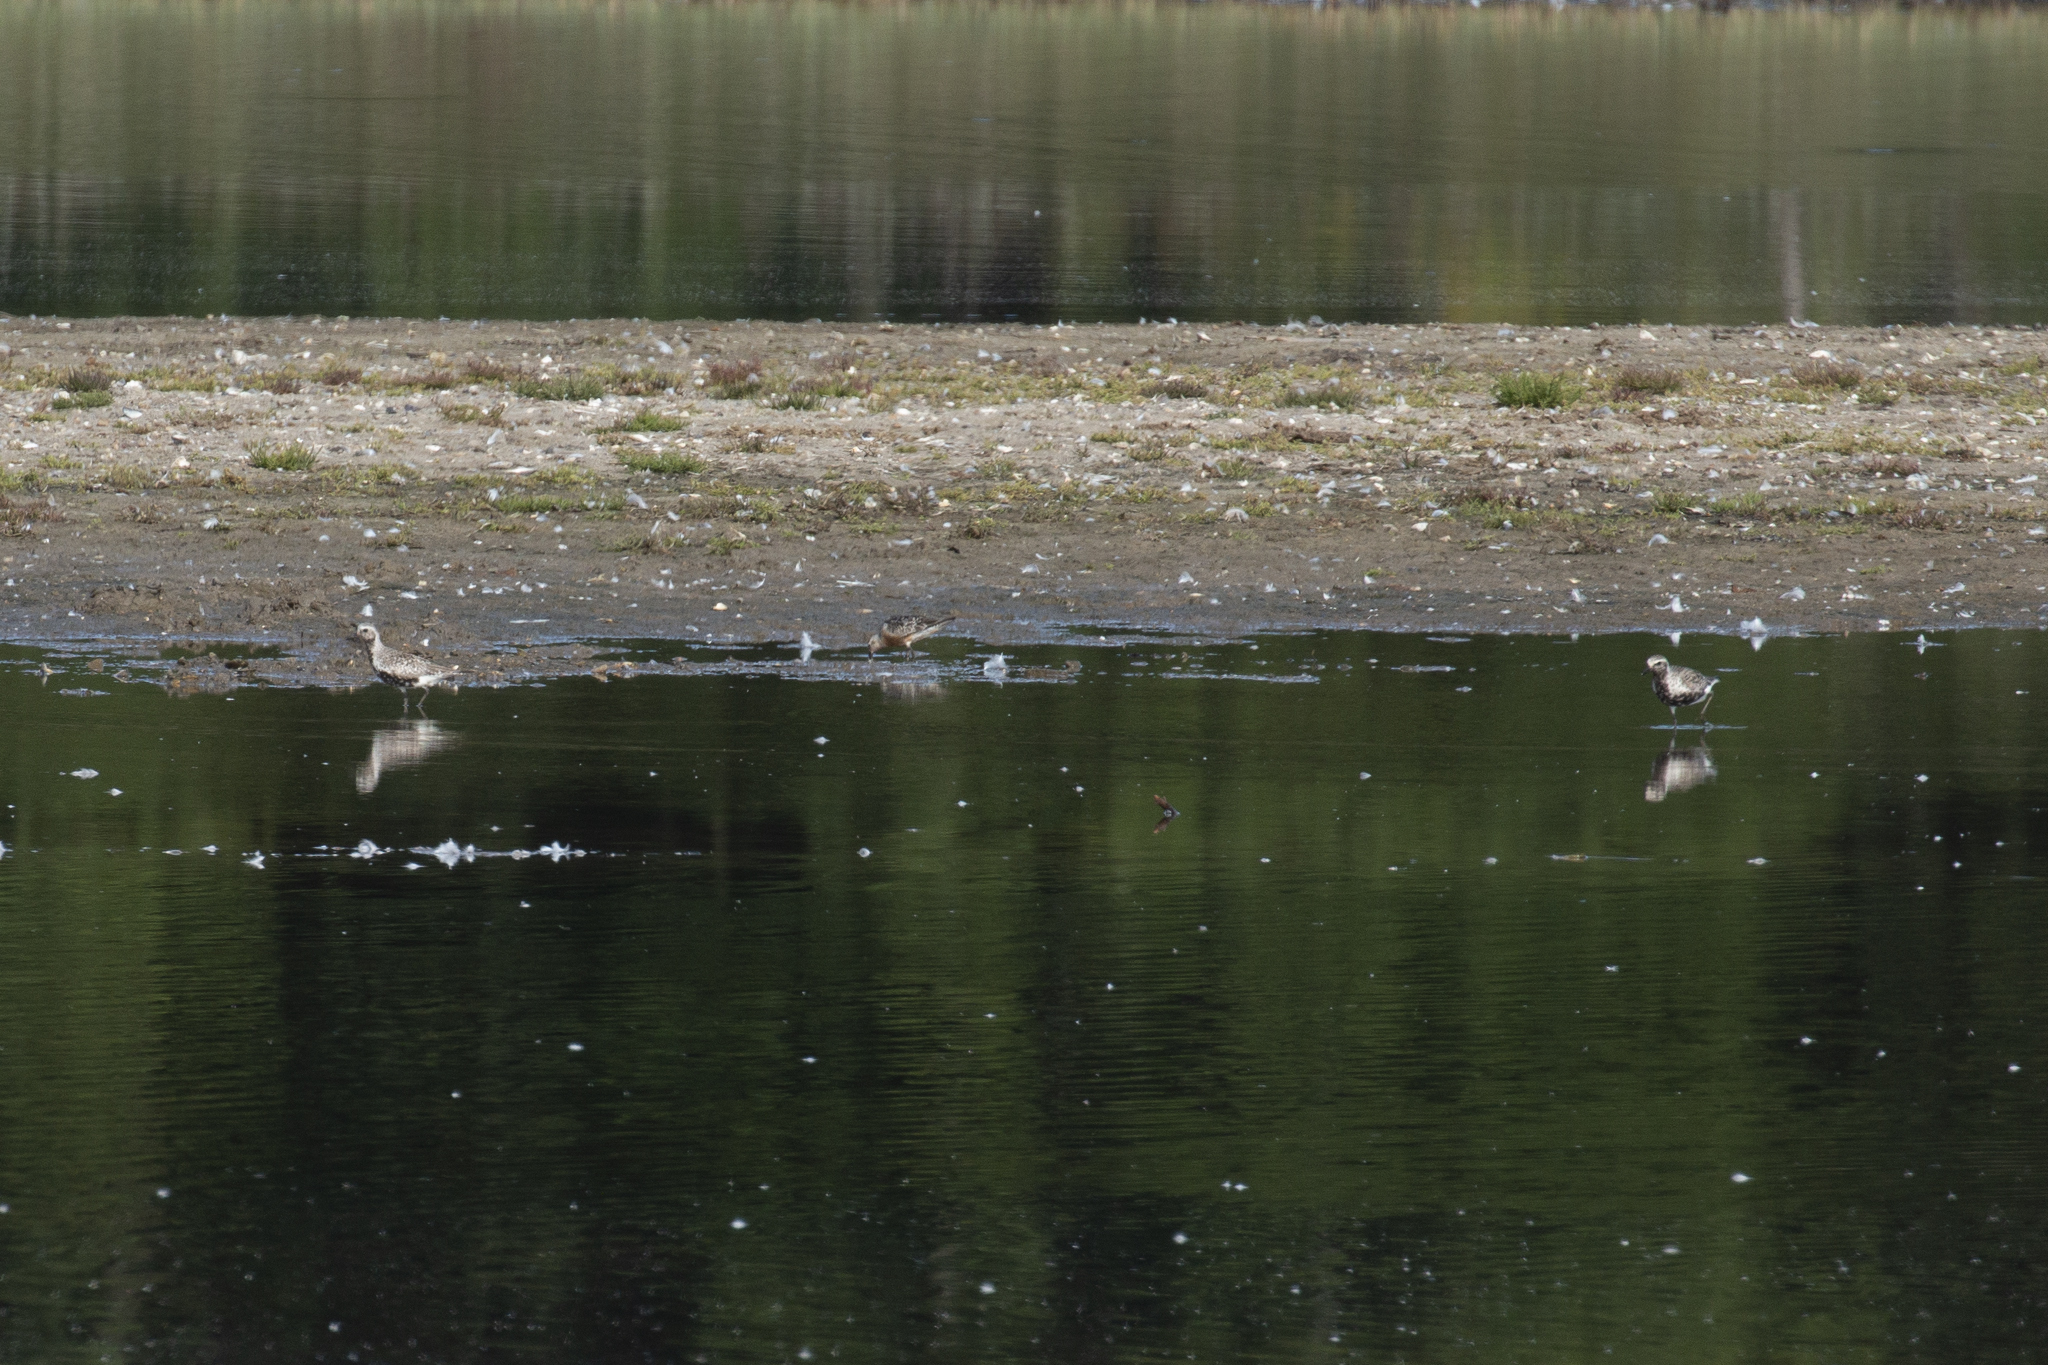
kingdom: Animalia
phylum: Chordata
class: Aves
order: Charadriiformes
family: Charadriidae
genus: Pluvialis
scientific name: Pluvialis apricaria
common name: European golden plover
